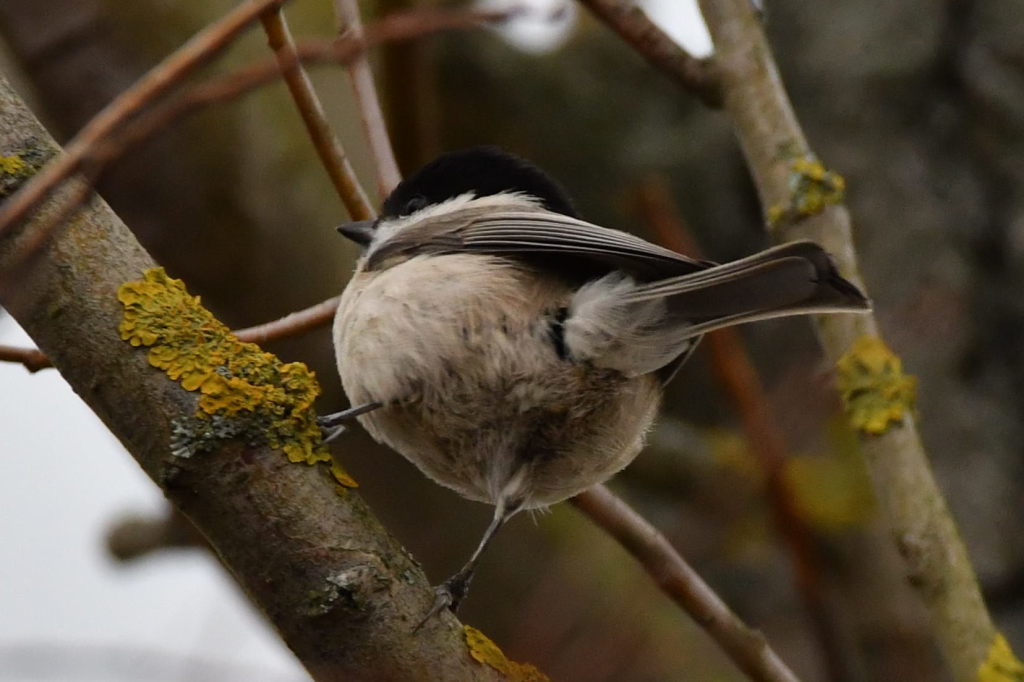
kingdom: Animalia
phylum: Chordata
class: Aves
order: Passeriformes
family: Paridae
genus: Poecile
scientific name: Poecile palustris
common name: Marsh tit
